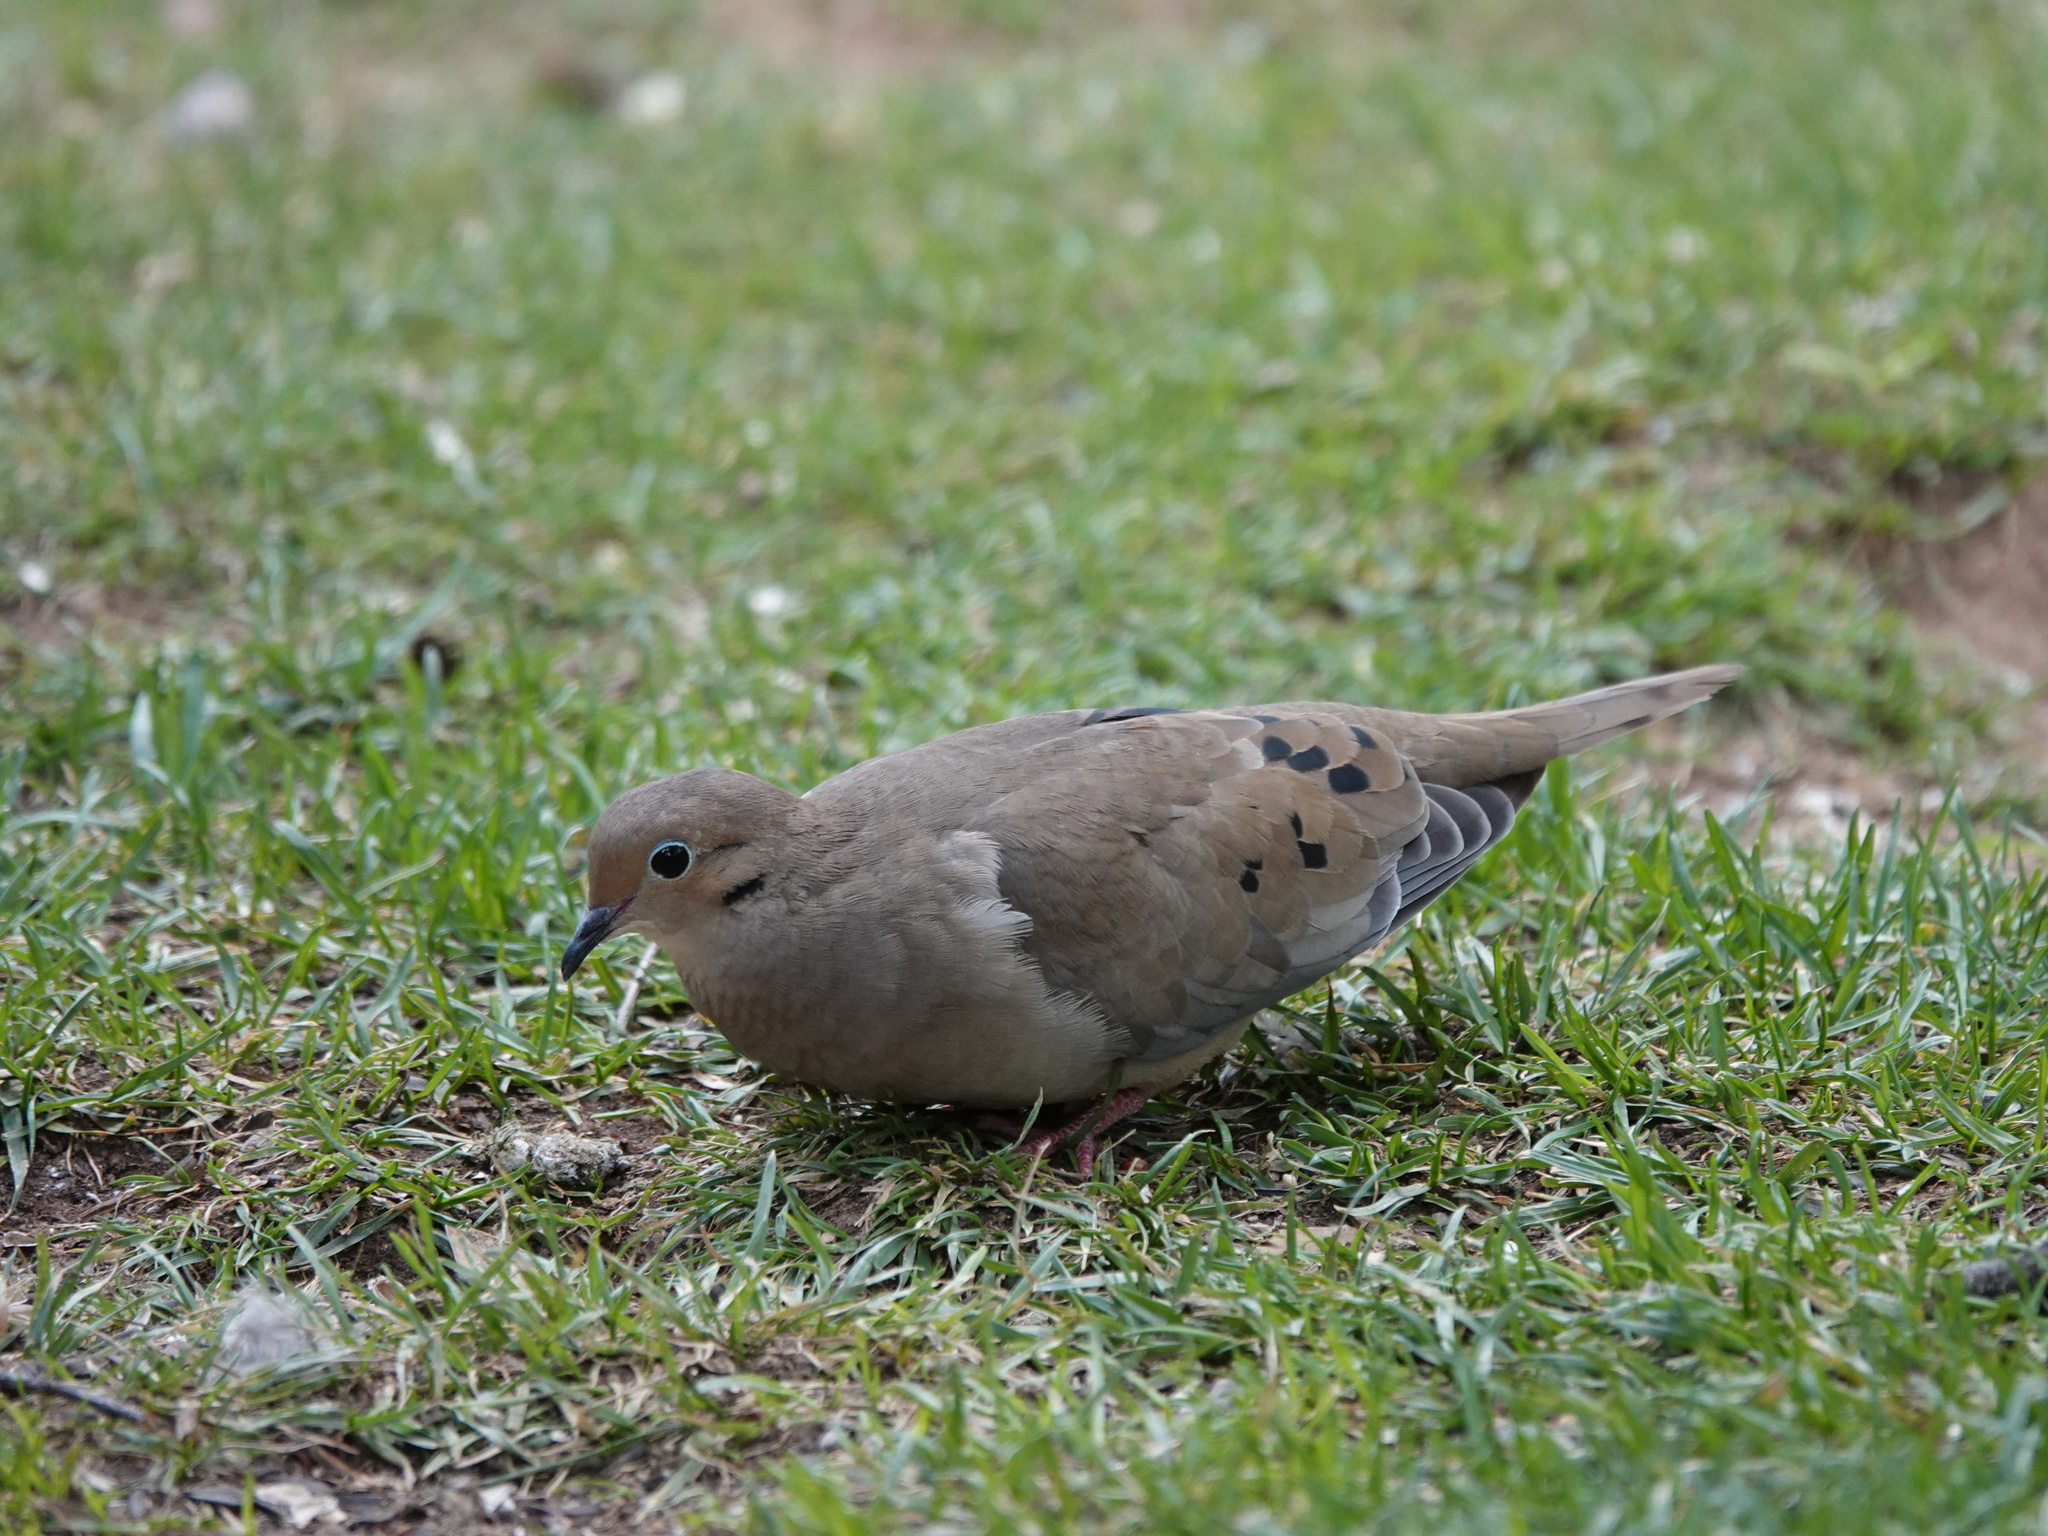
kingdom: Animalia
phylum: Chordata
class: Aves
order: Columbiformes
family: Columbidae
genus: Zenaida
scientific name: Zenaida macroura
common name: Mourning dove
